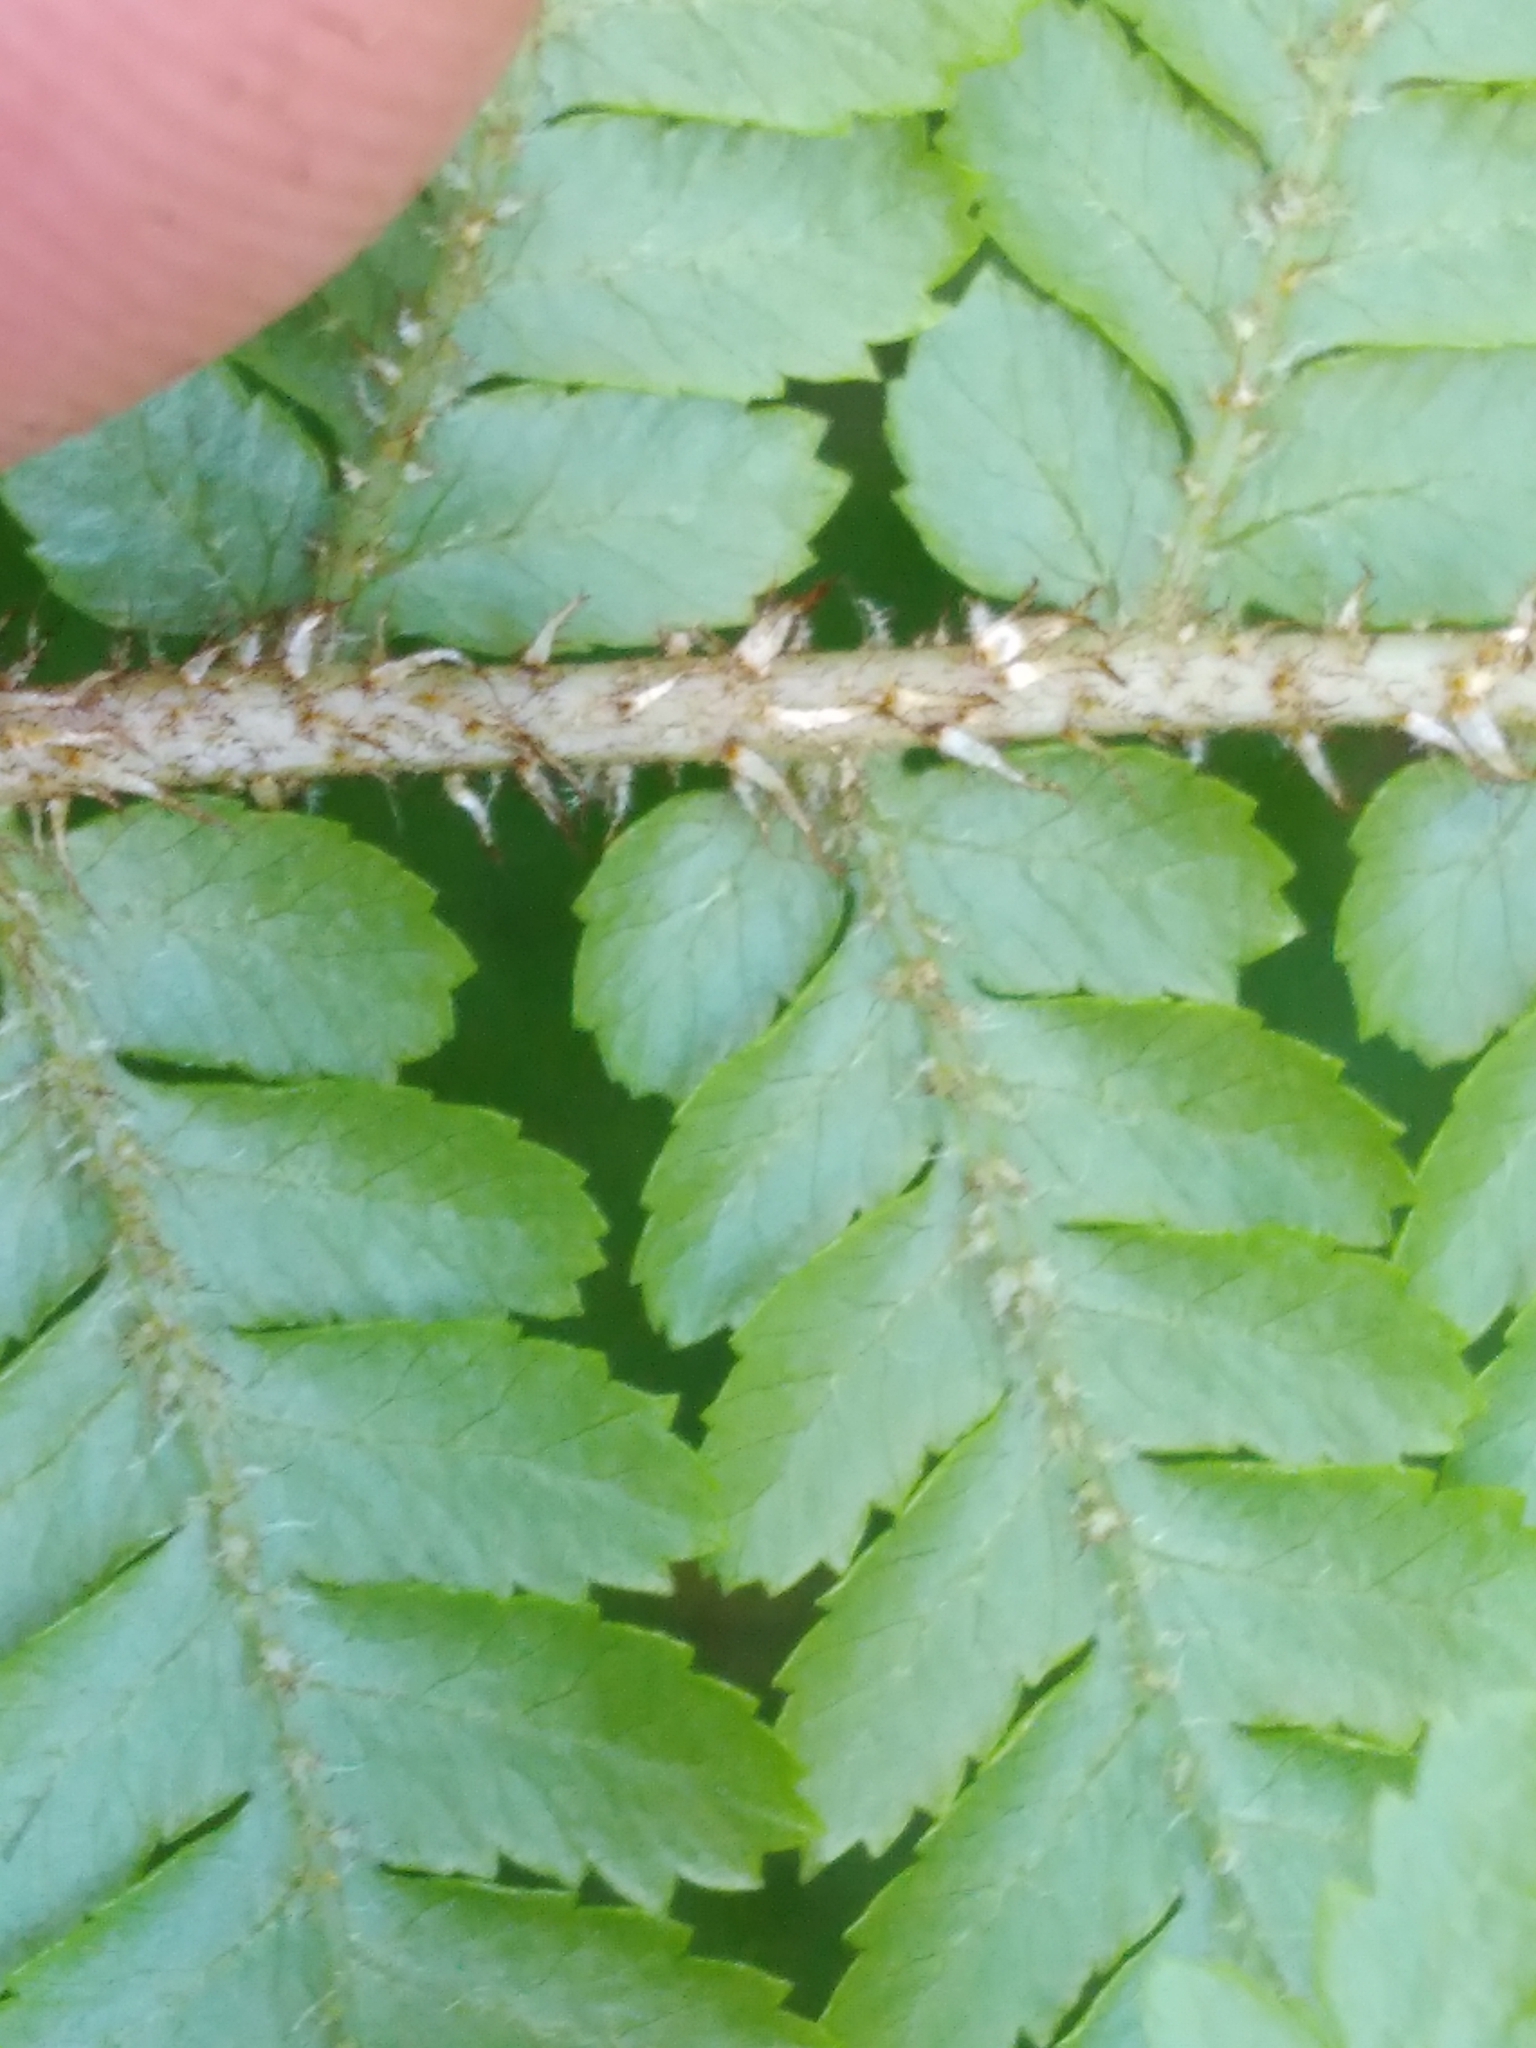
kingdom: Plantae
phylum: Tracheophyta
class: Polypodiopsida
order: Cyatheales
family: Cyatheaceae
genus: Sphaeropteris
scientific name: Sphaeropteris medullaris
